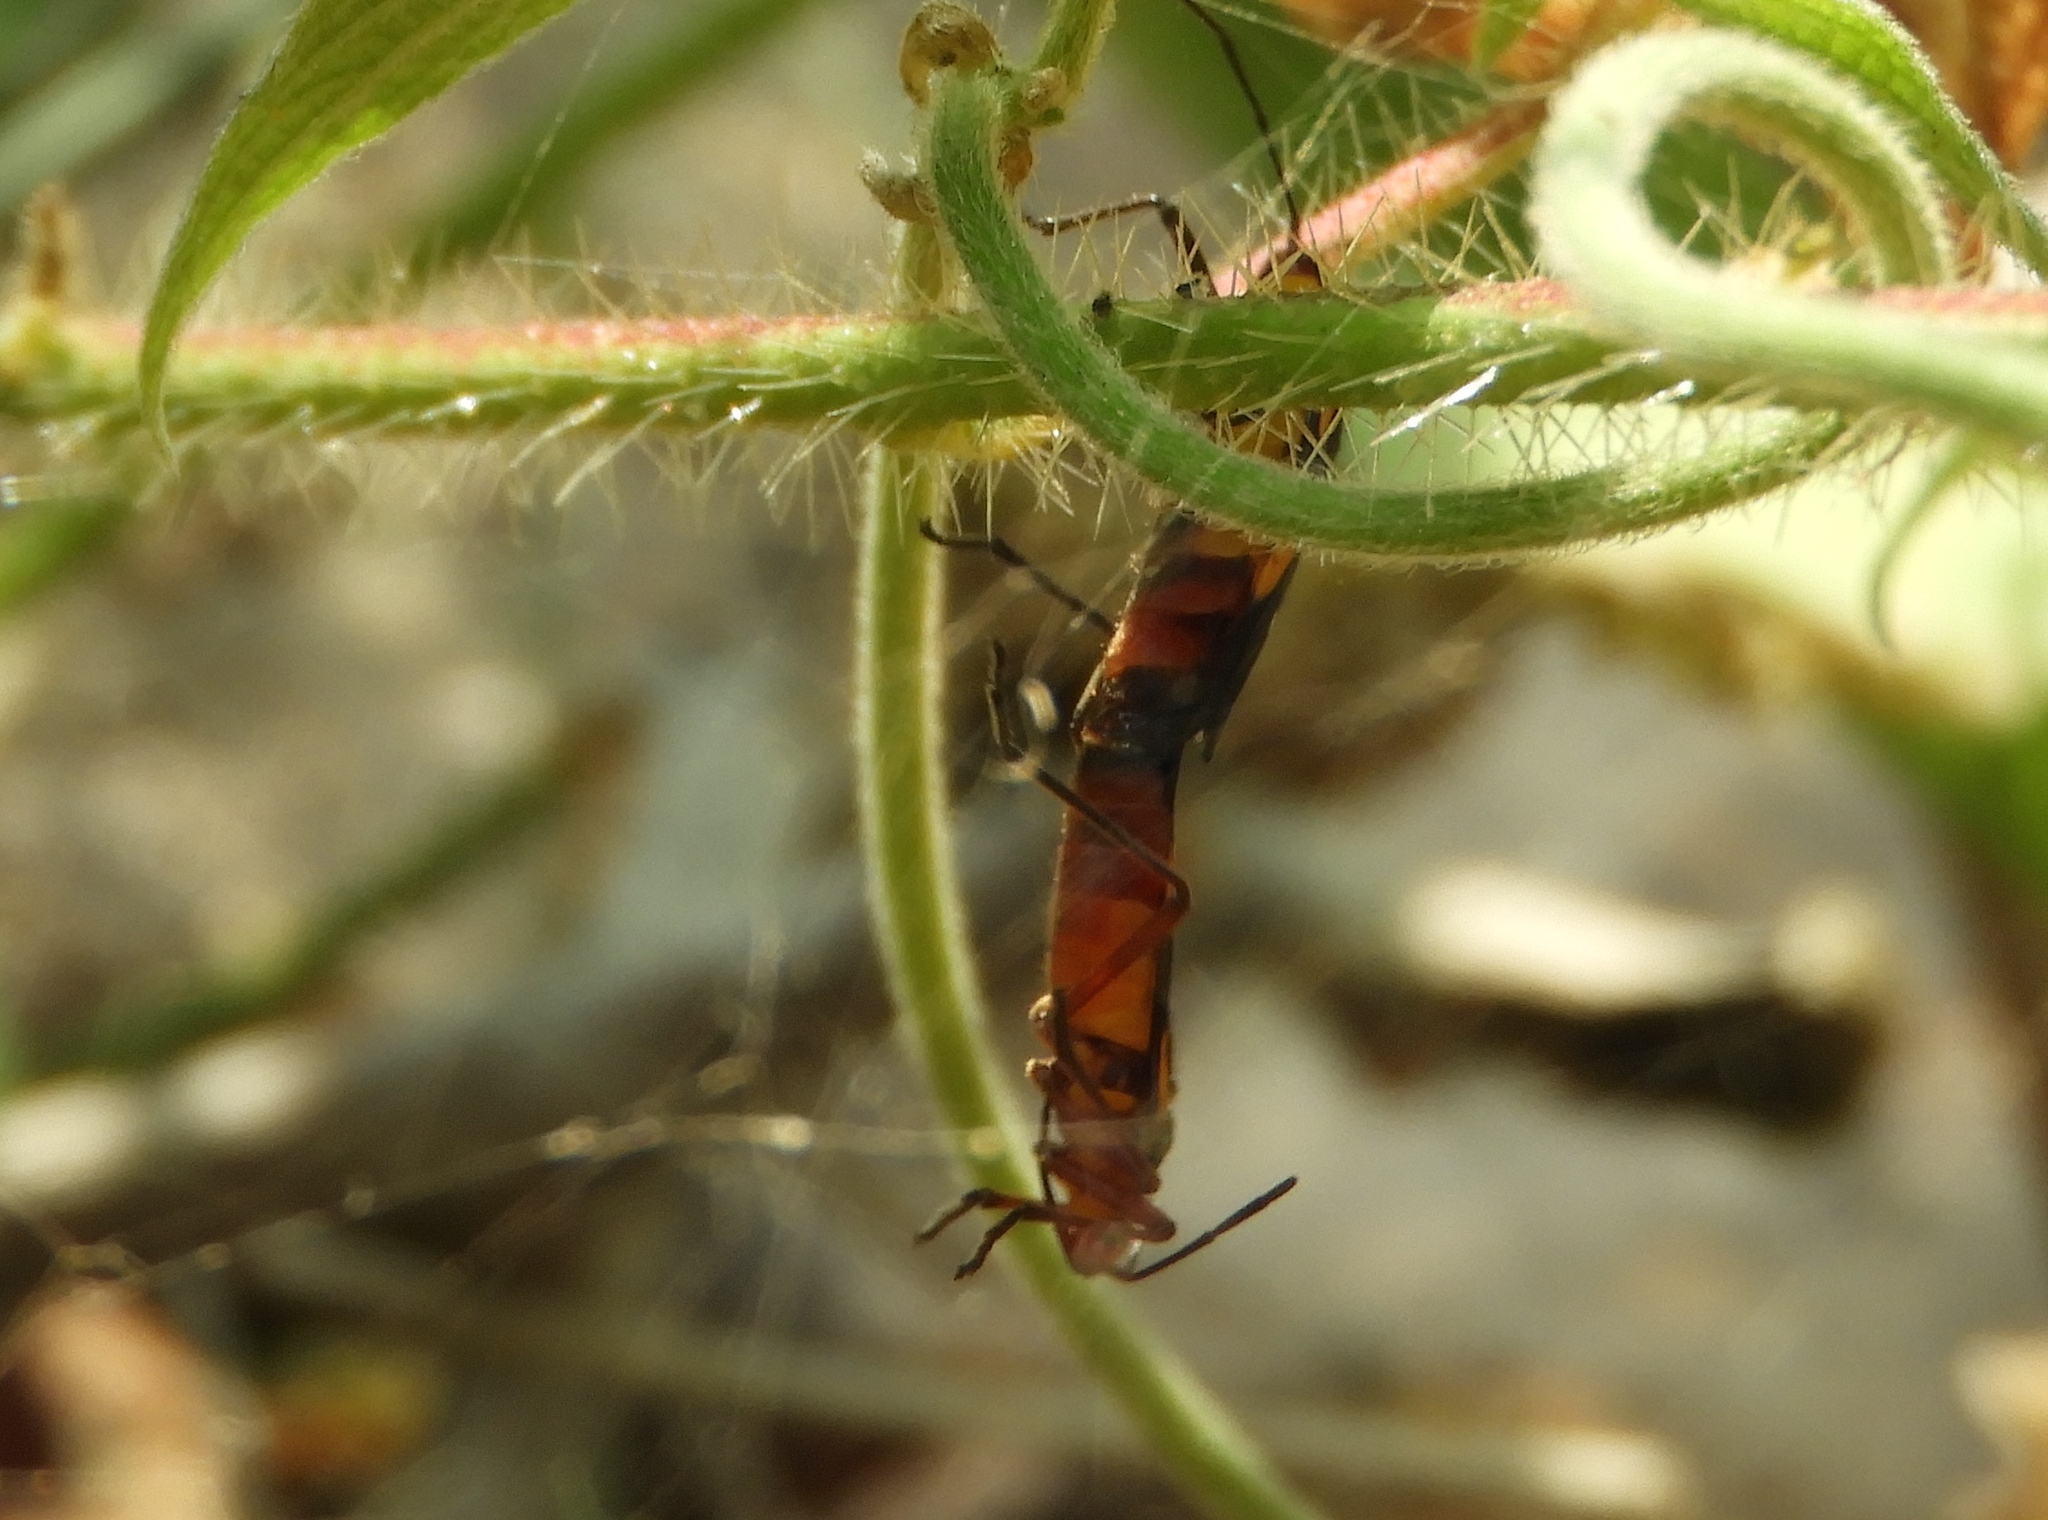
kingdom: Animalia
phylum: Arthropoda
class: Insecta
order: Hemiptera
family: Lygaeidae
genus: Oncopeltus
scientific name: Oncopeltus guttaloides
